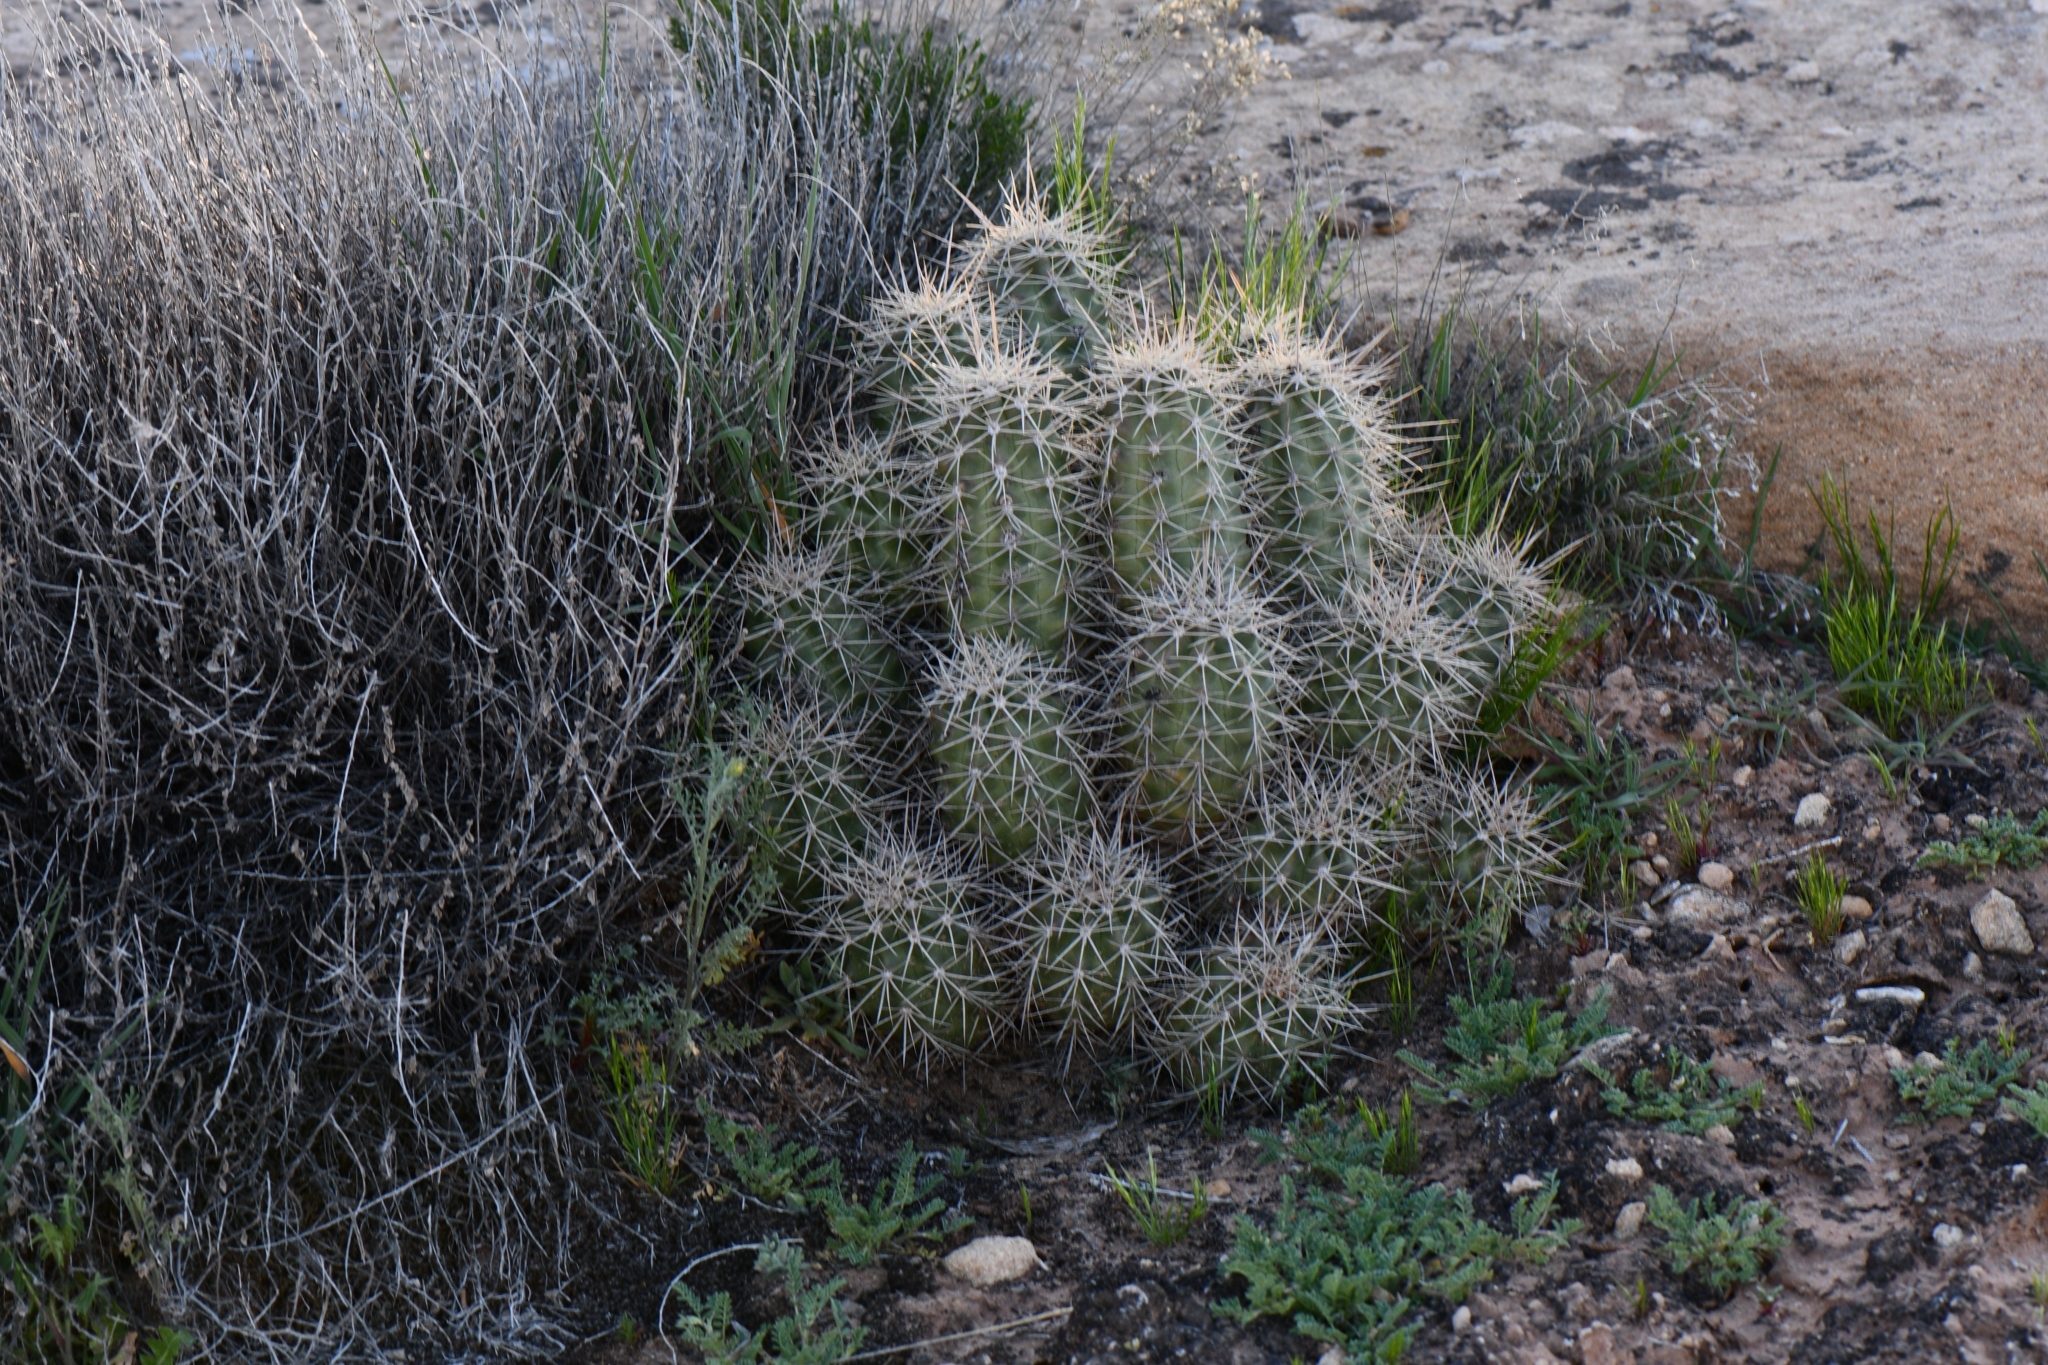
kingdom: Plantae
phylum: Tracheophyta
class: Magnoliopsida
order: Caryophyllales
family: Cactaceae
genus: Echinocereus
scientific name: Echinocereus triglochidiatus
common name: Claretcup hedgehog
